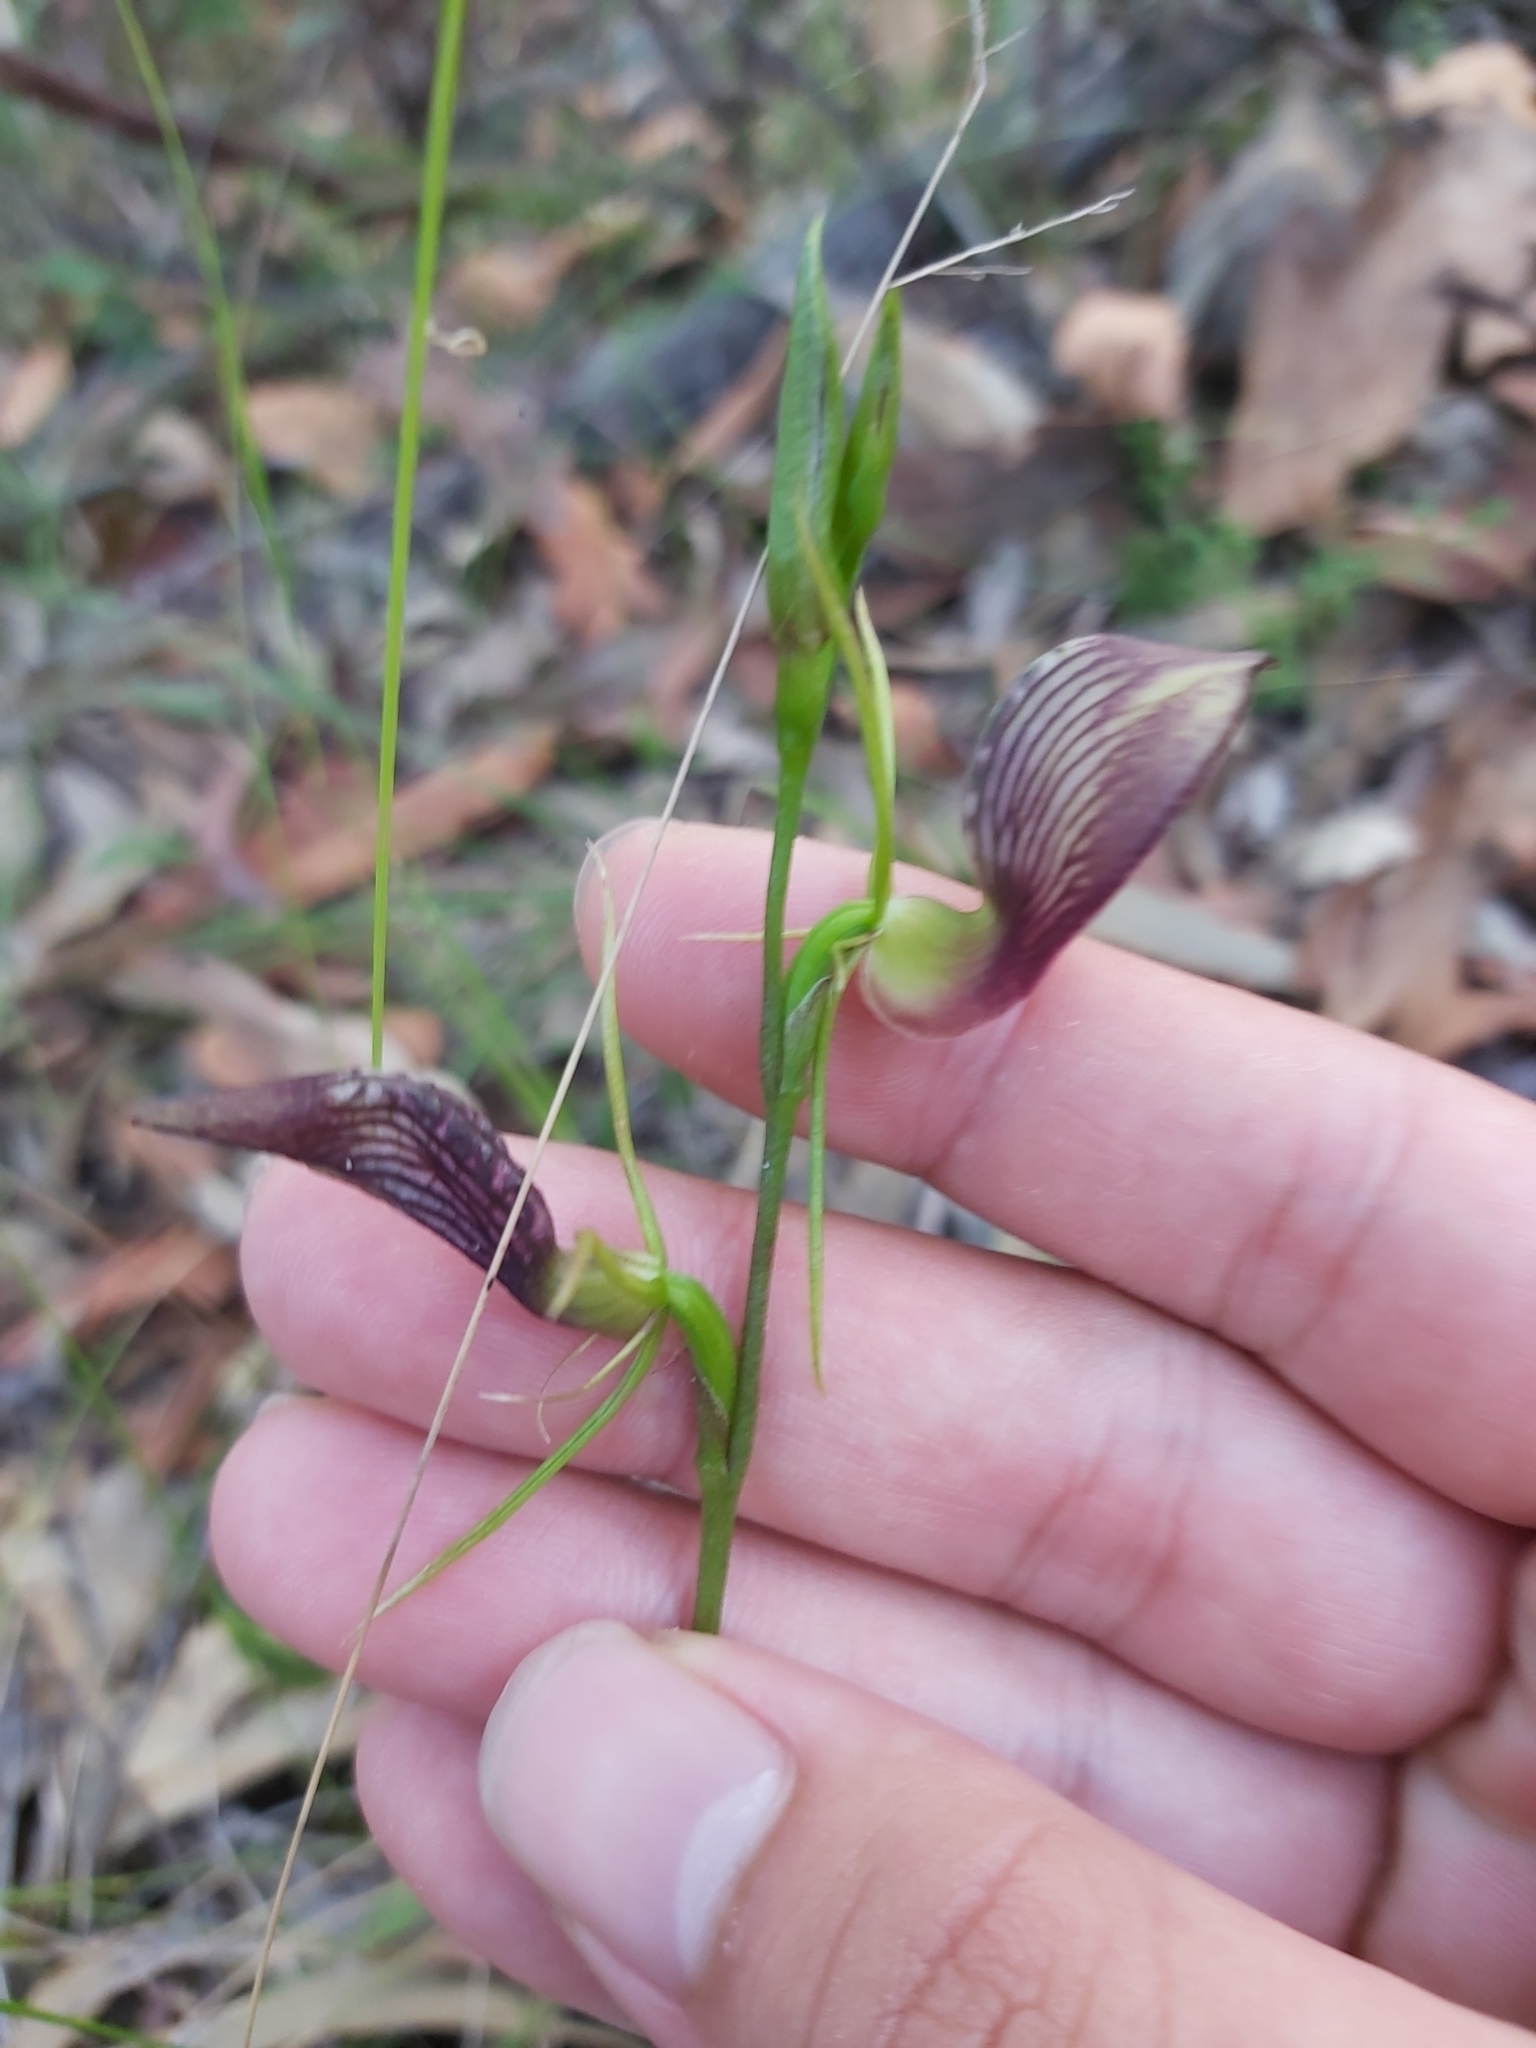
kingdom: Plantae
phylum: Tracheophyta
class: Liliopsida
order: Asparagales
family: Orchidaceae
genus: Cryptostylis
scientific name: Cryptostylis erecta
